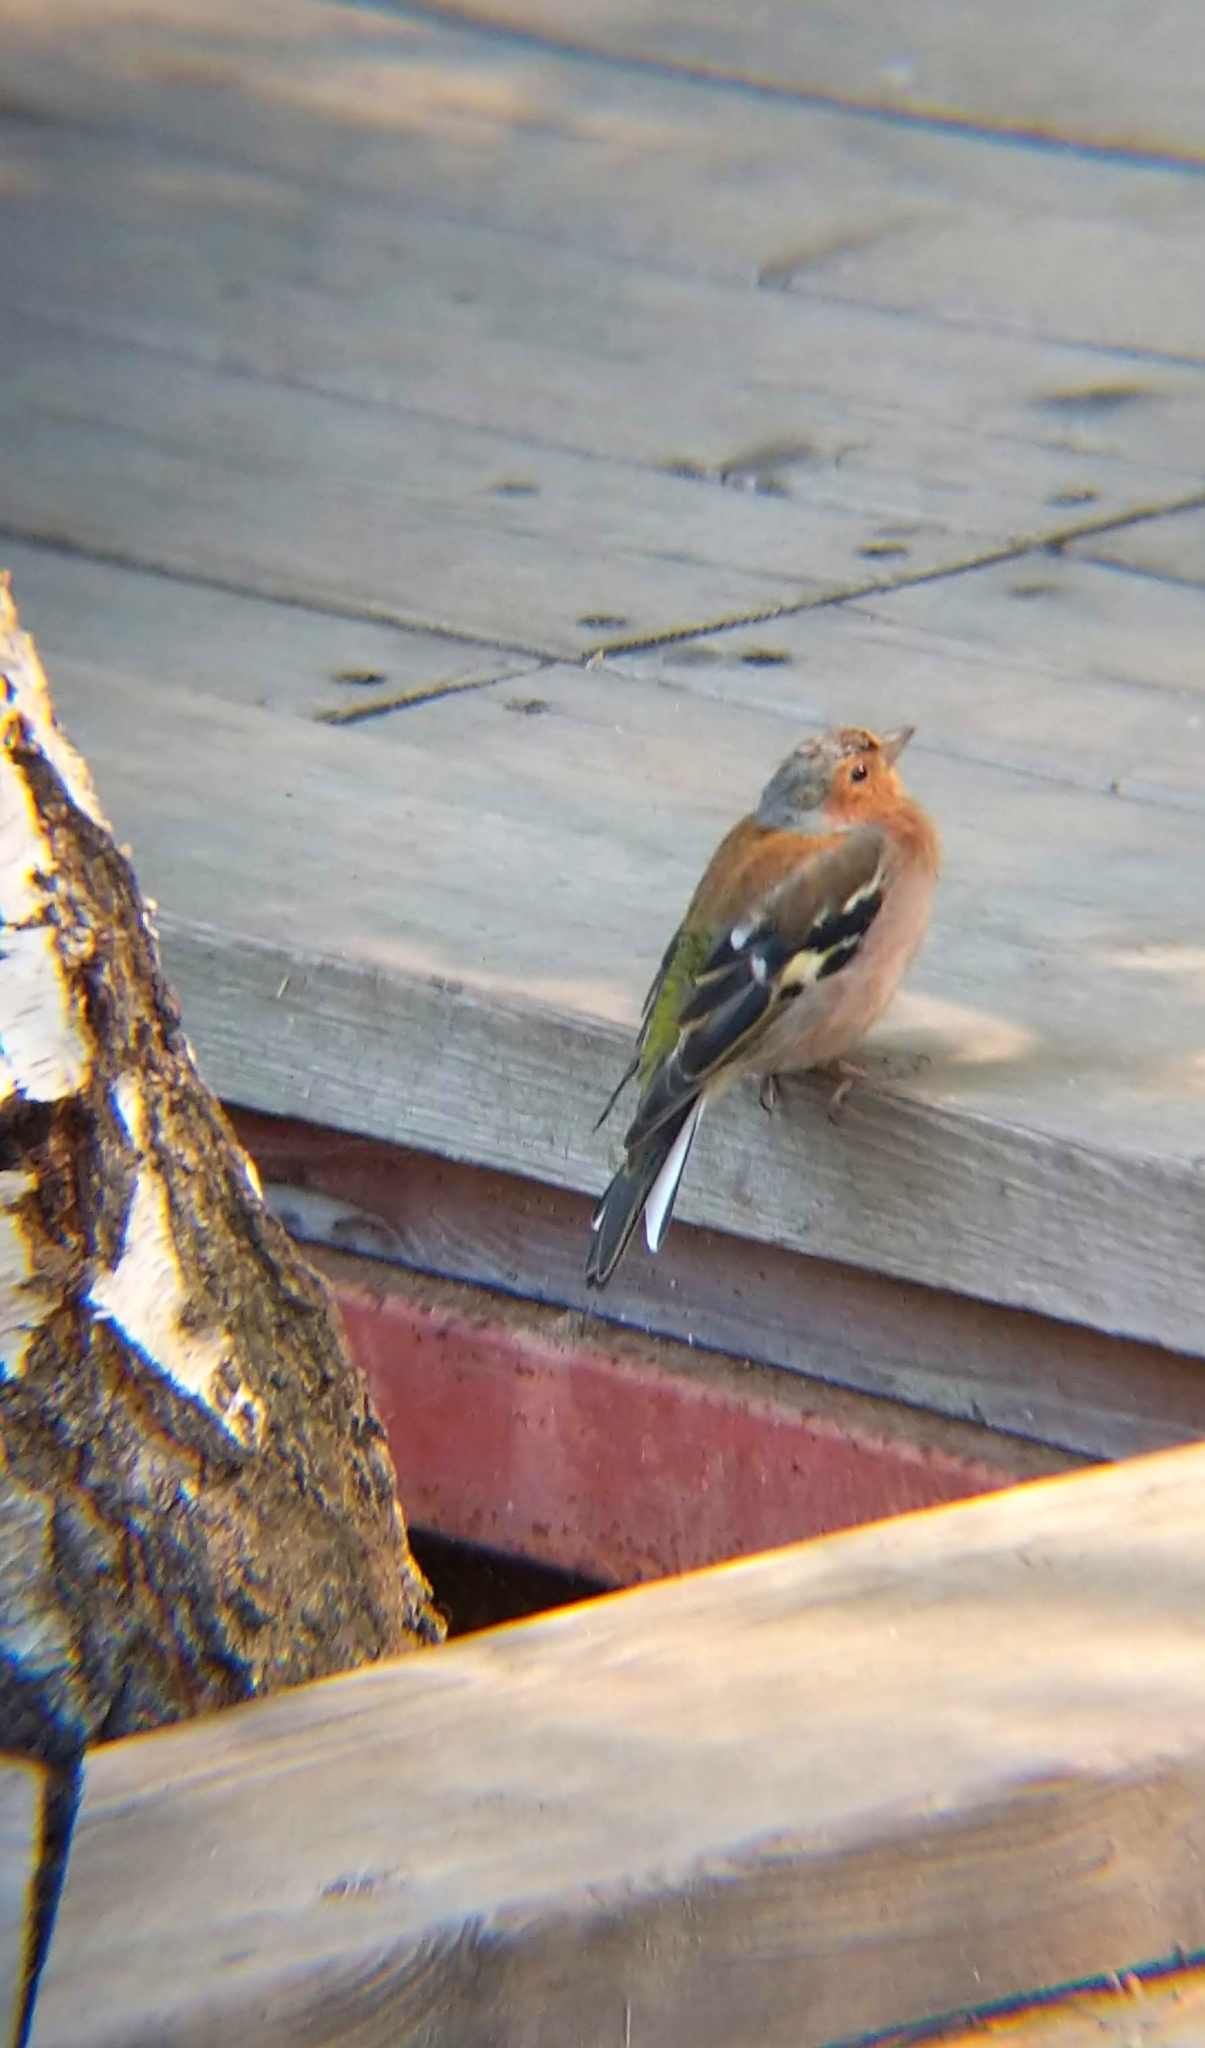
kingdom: Animalia
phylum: Chordata
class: Aves
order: Passeriformes
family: Fringillidae
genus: Fringilla
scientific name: Fringilla coelebs
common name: Common chaffinch
